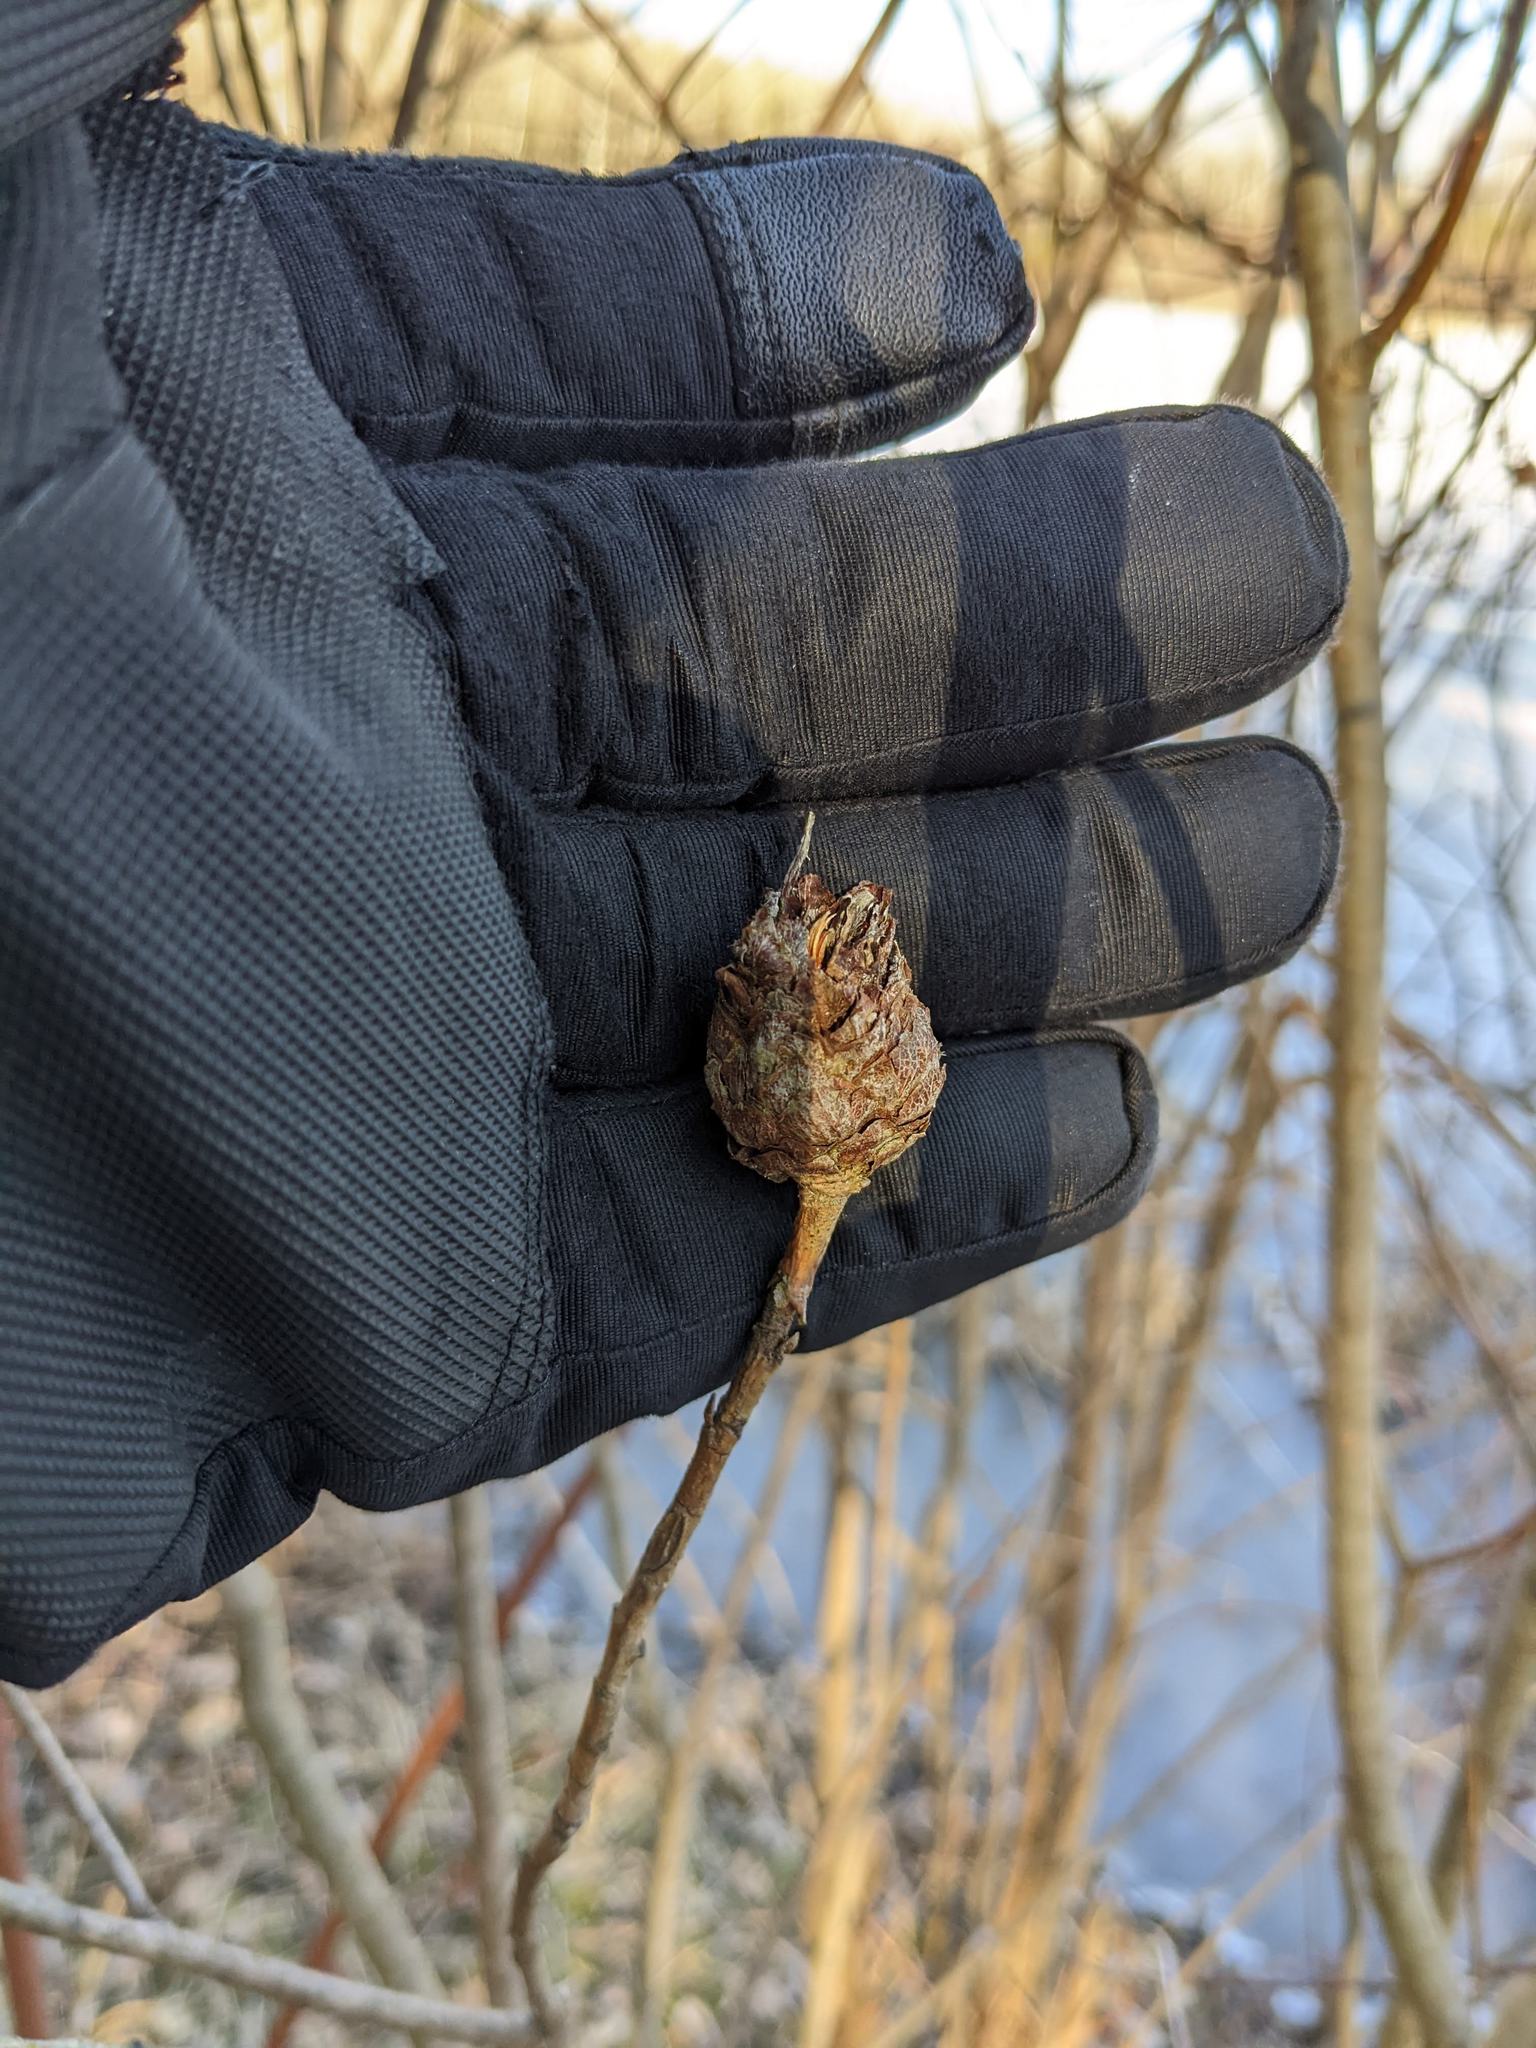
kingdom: Animalia
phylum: Arthropoda
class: Insecta
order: Diptera
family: Cecidomyiidae
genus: Rabdophaga
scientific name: Rabdophaga strobiloides
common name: Willow pinecone gall midge
